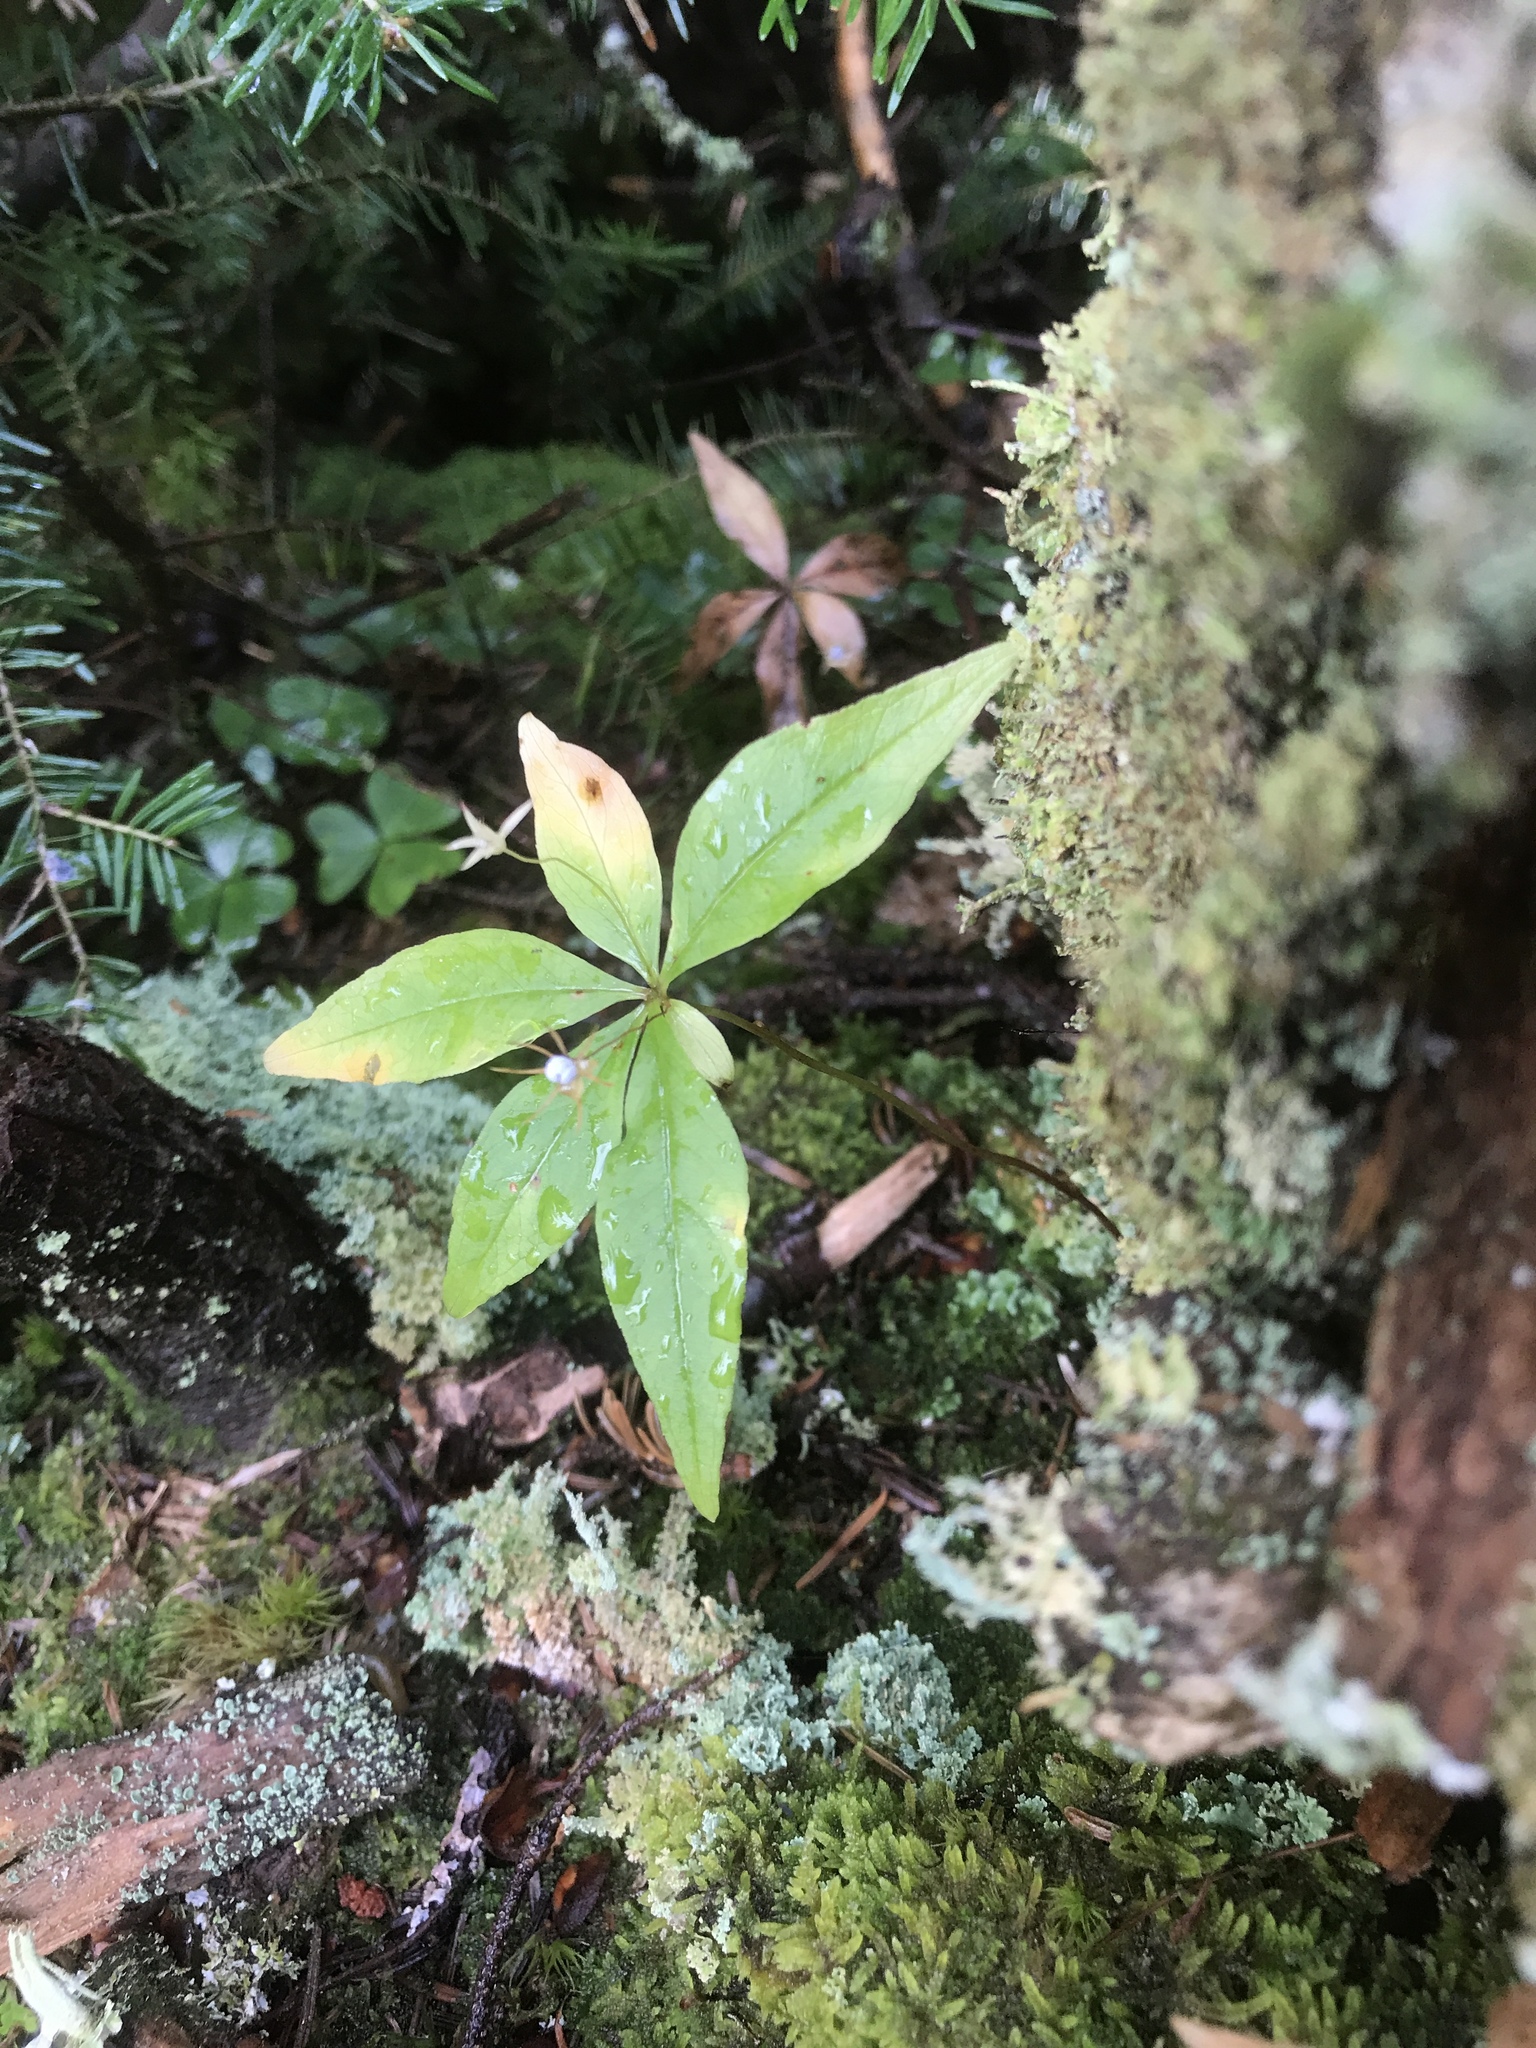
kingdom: Plantae
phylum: Tracheophyta
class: Magnoliopsida
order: Ericales
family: Primulaceae
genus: Lysimachia
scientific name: Lysimachia borealis
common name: American starflower
